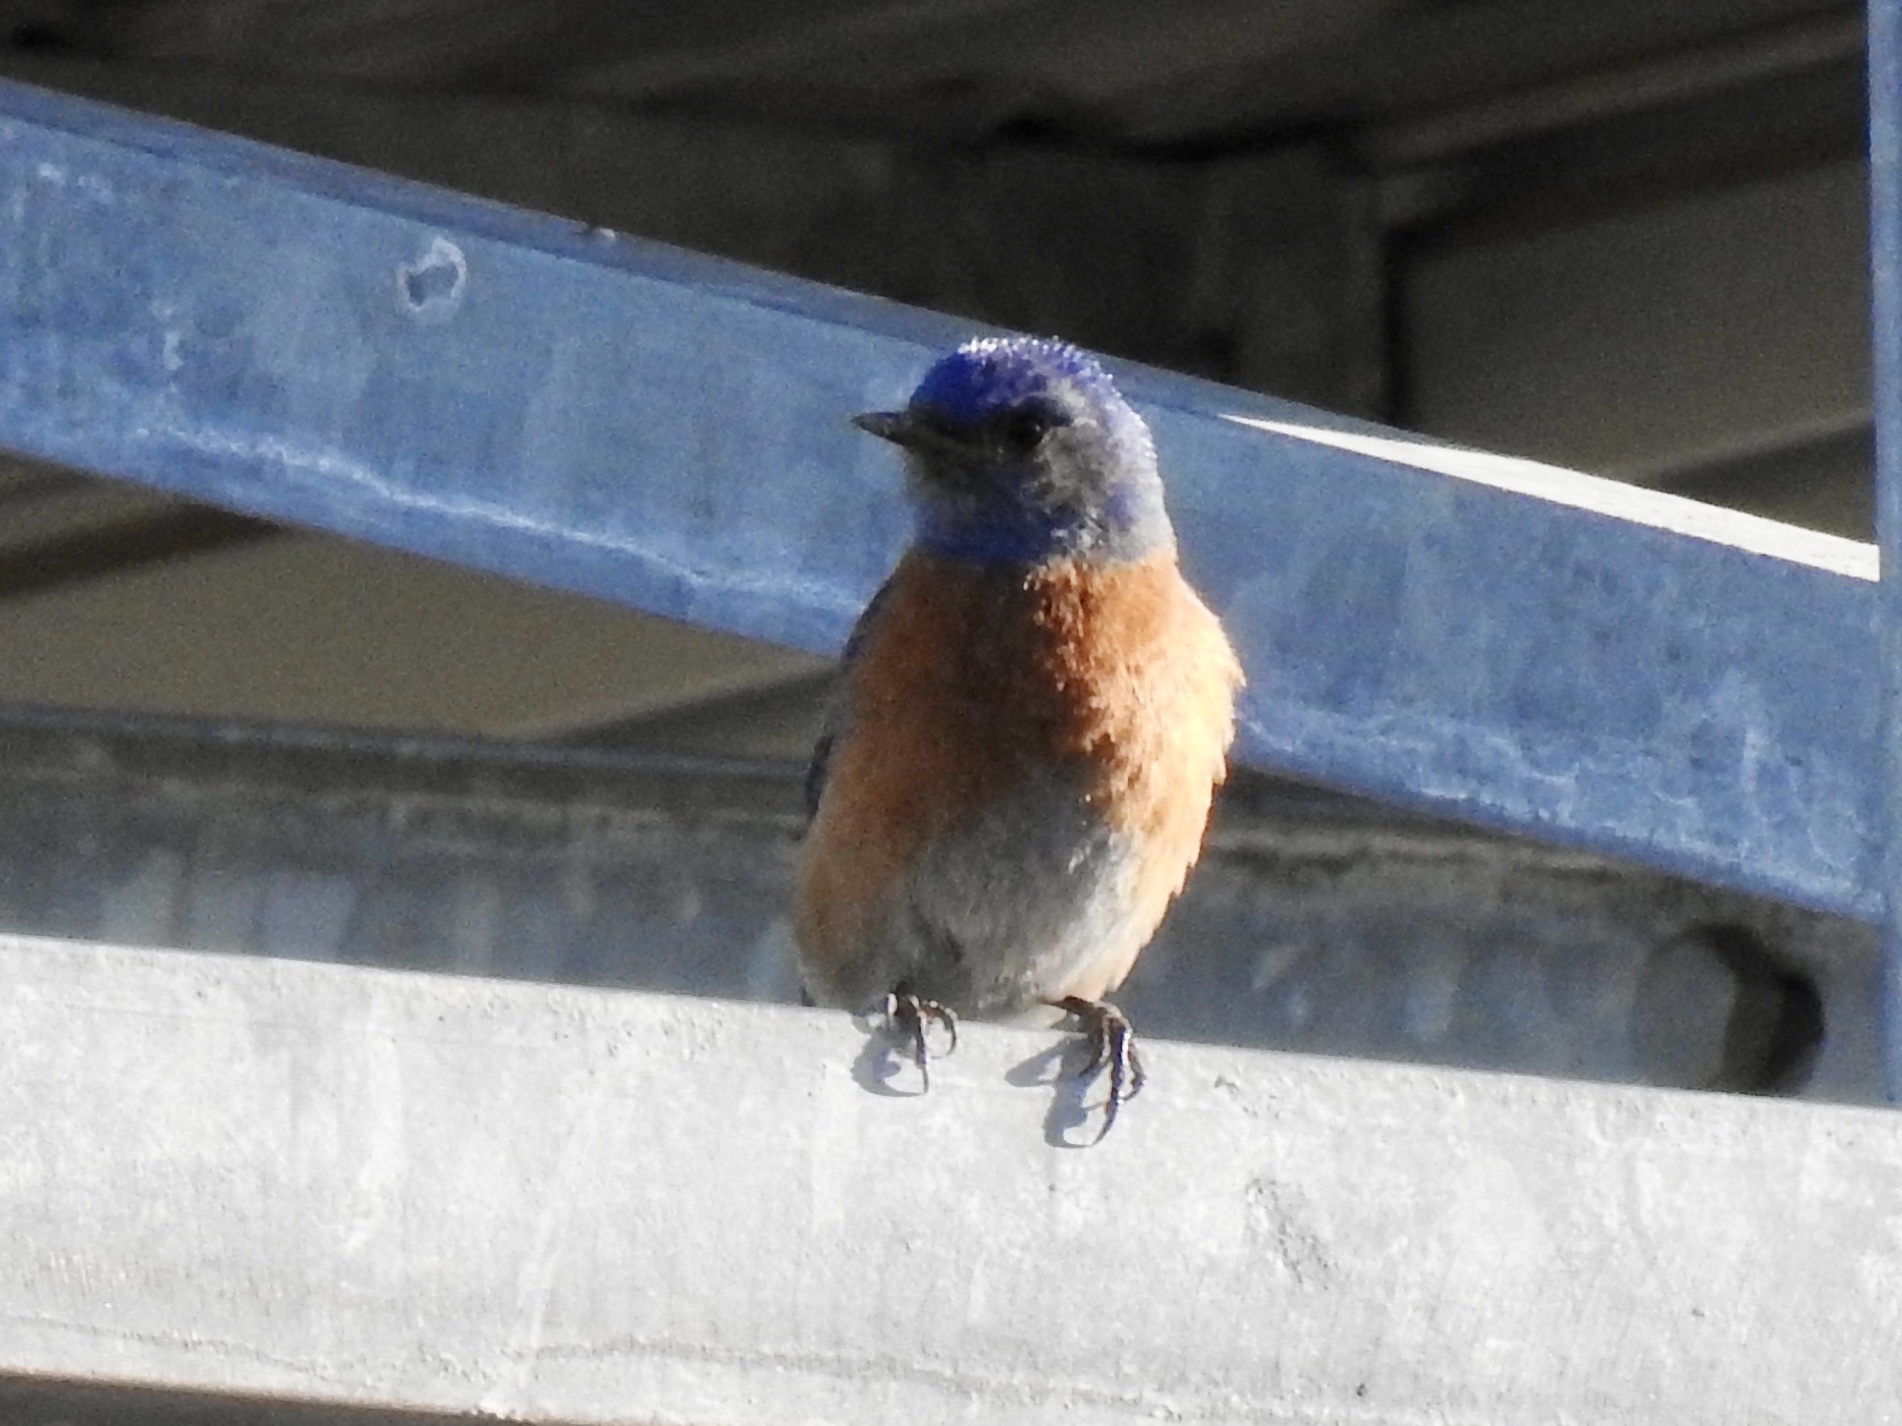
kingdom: Animalia
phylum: Chordata
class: Aves
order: Passeriformes
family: Turdidae
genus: Sialia
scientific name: Sialia mexicana
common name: Western bluebird
